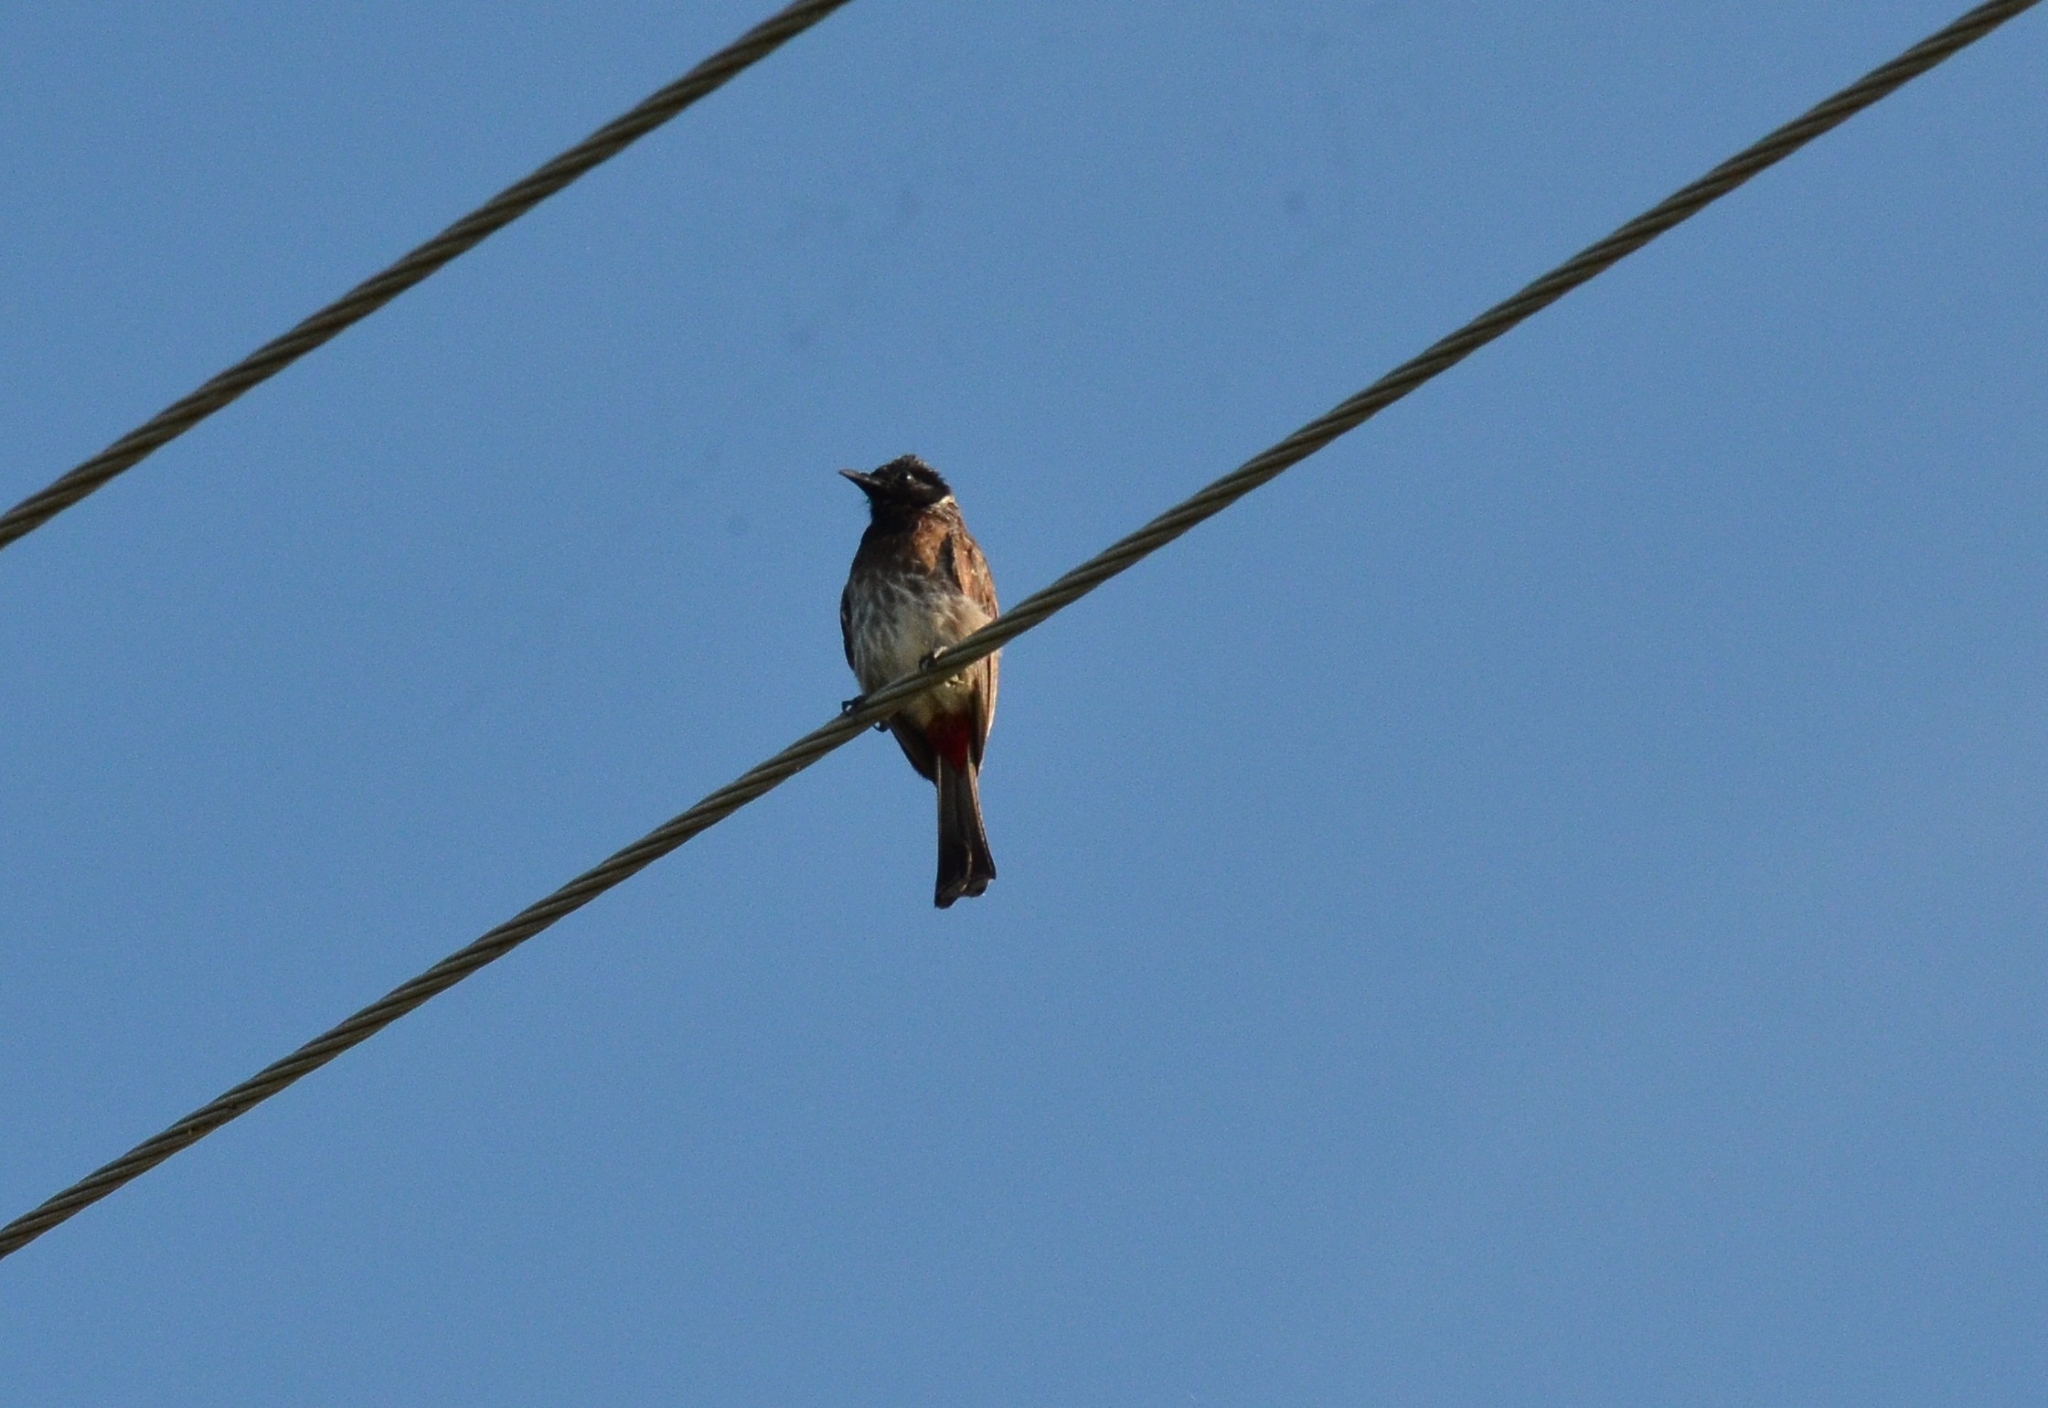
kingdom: Animalia
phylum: Chordata
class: Aves
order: Passeriformes
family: Pycnonotidae
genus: Pycnonotus
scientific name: Pycnonotus cafer
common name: Red-vented bulbul
